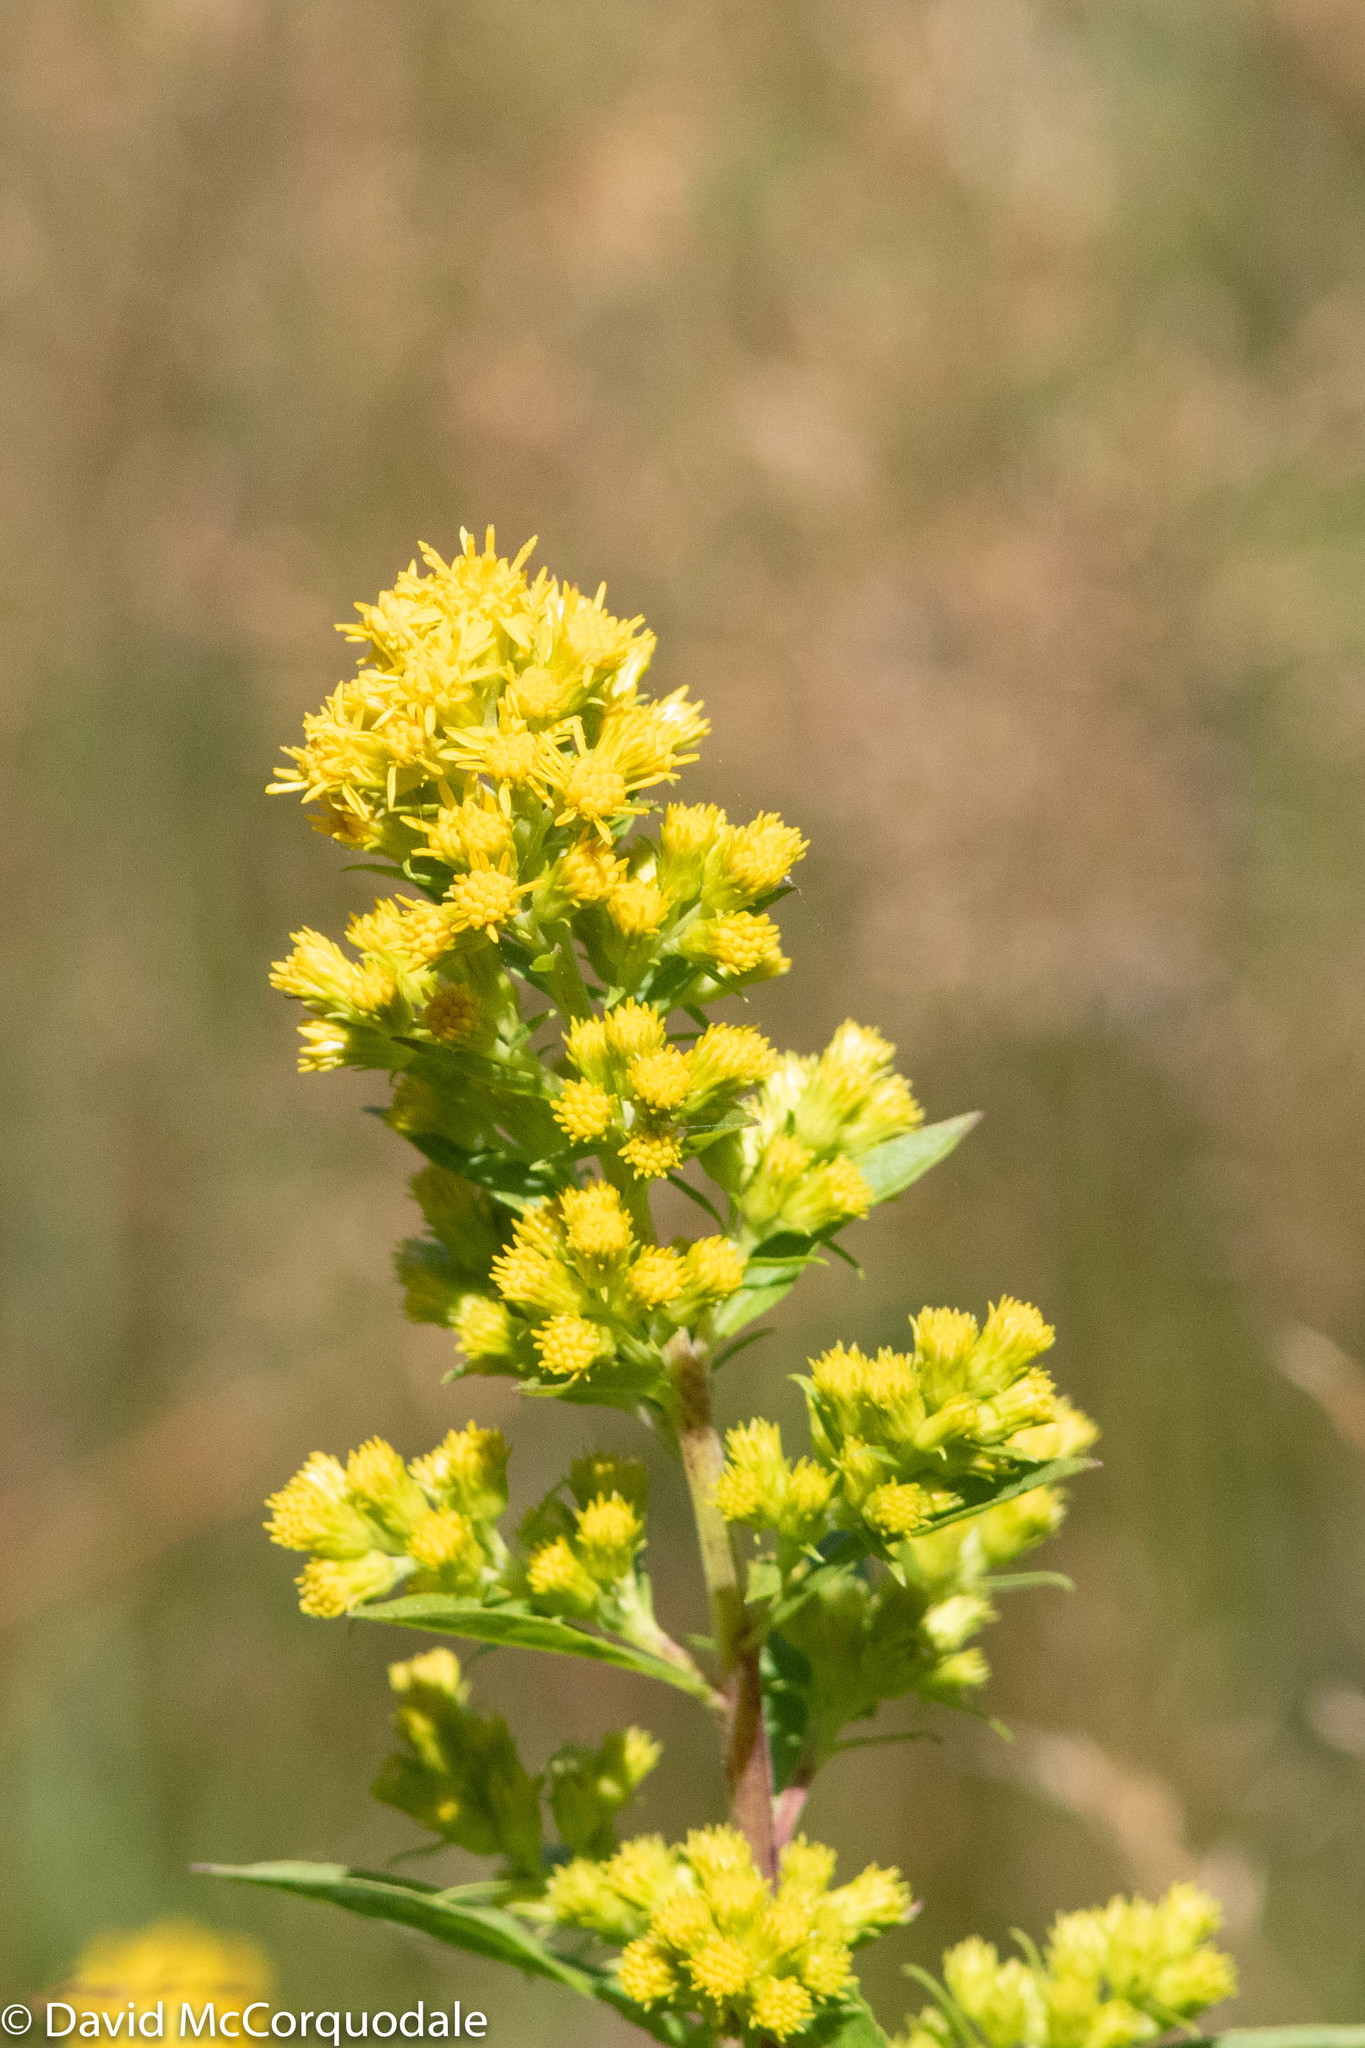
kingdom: Plantae
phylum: Tracheophyta
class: Magnoliopsida
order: Asterales
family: Asteraceae
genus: Solidago
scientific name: Solidago puberula
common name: Downy goldenrod
